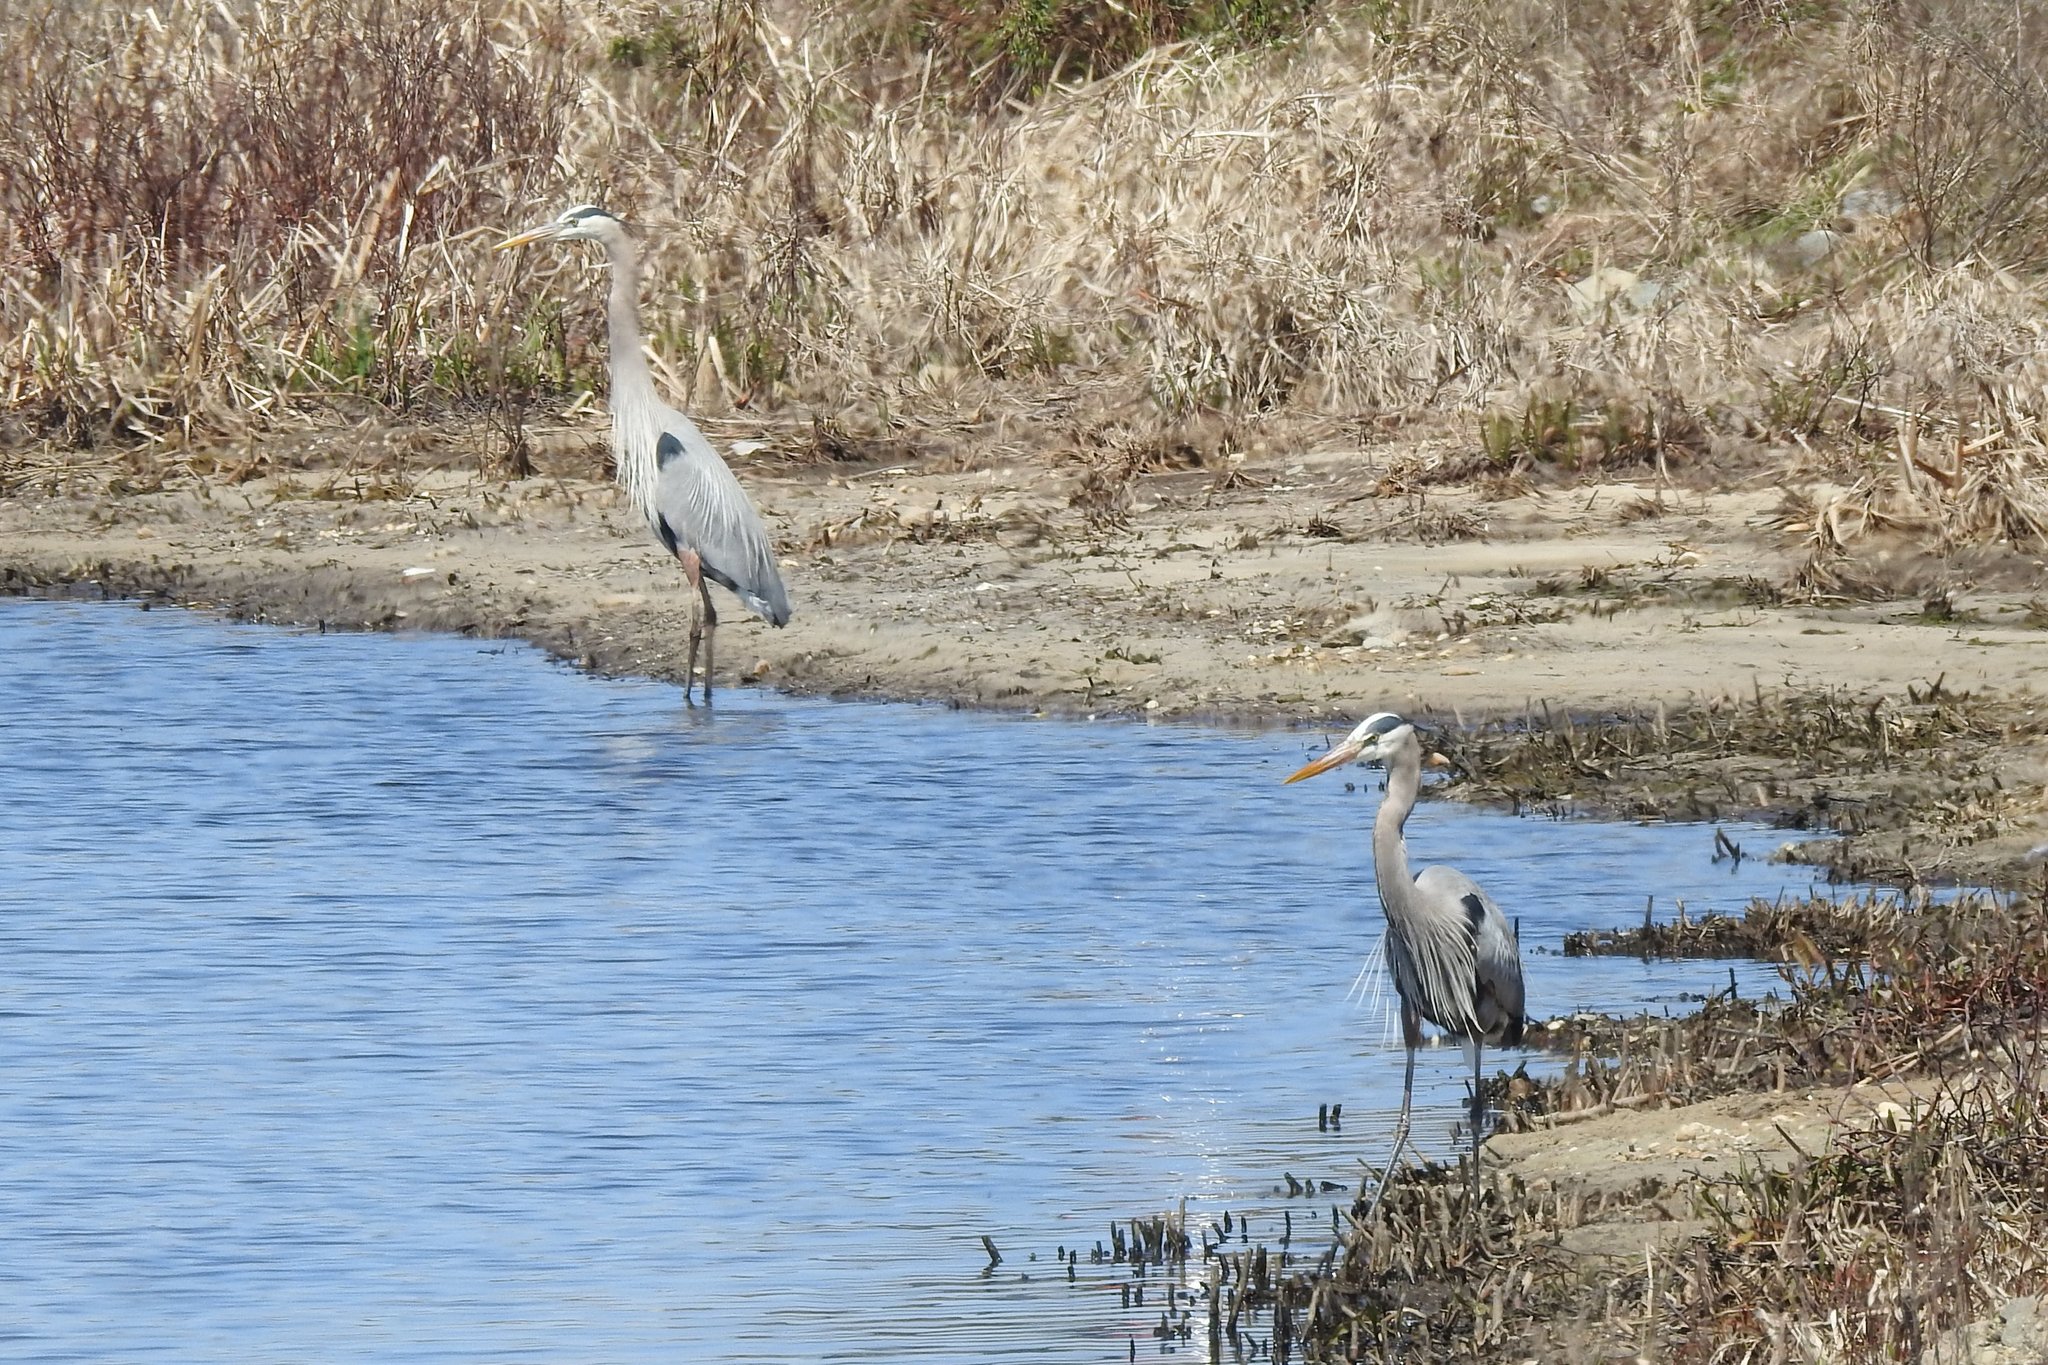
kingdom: Animalia
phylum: Chordata
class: Aves
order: Pelecaniformes
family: Ardeidae
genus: Ardea
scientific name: Ardea herodias
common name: Great blue heron
